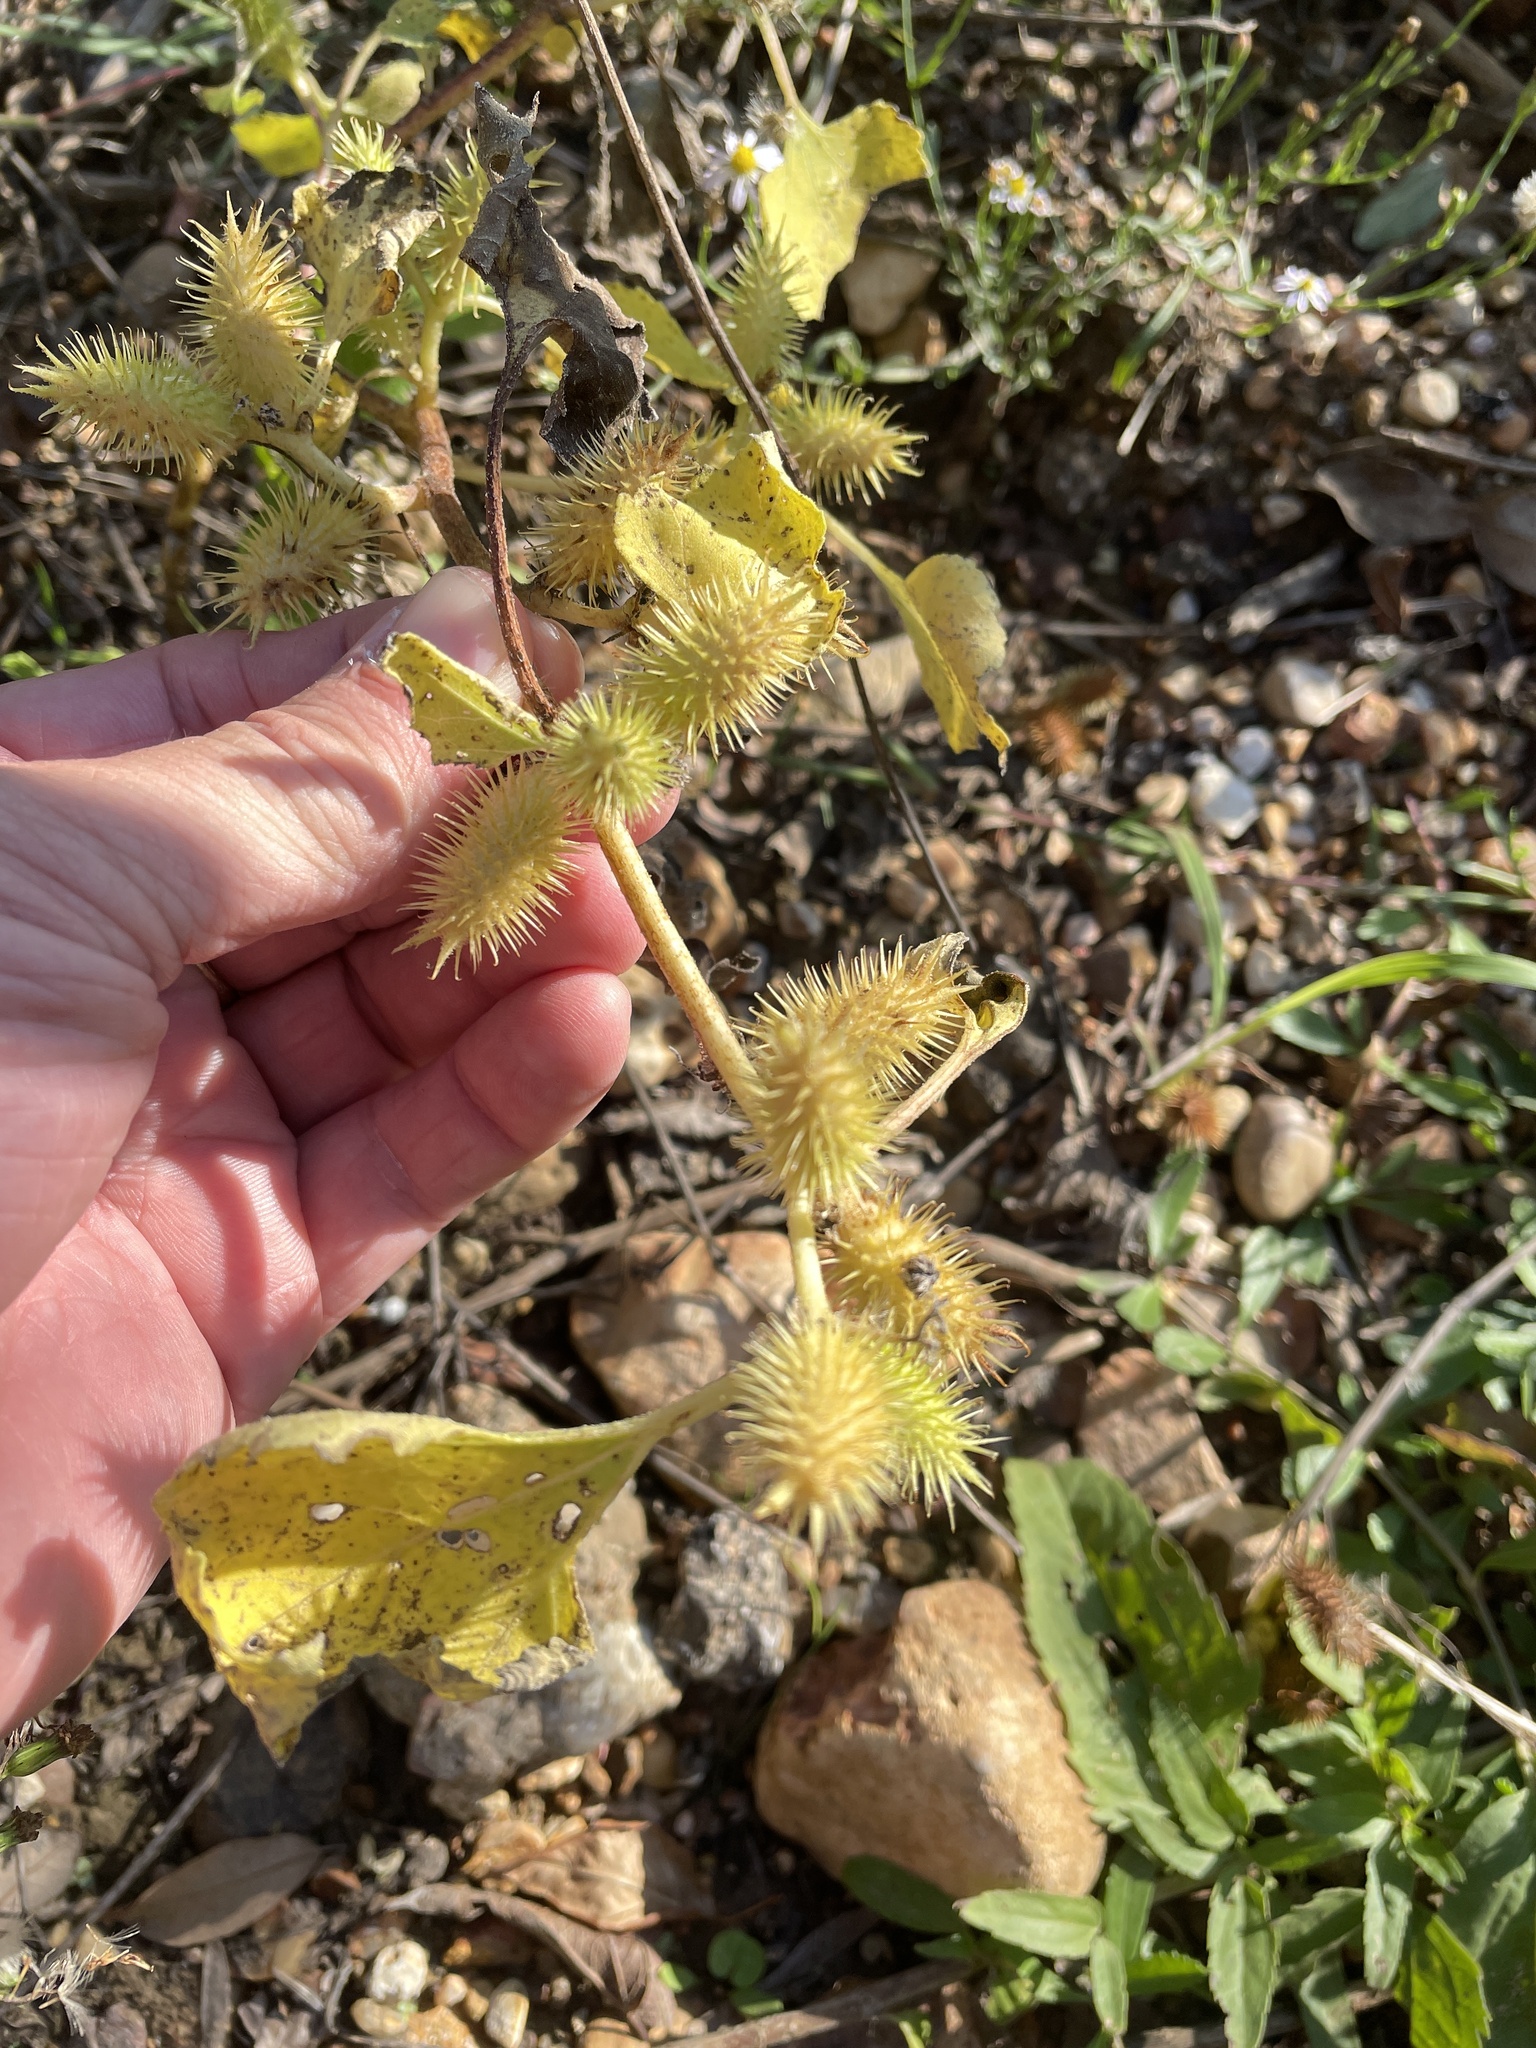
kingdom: Plantae
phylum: Tracheophyta
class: Magnoliopsida
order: Asterales
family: Asteraceae
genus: Xanthium
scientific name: Xanthium strumarium
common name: Rough cocklebur
